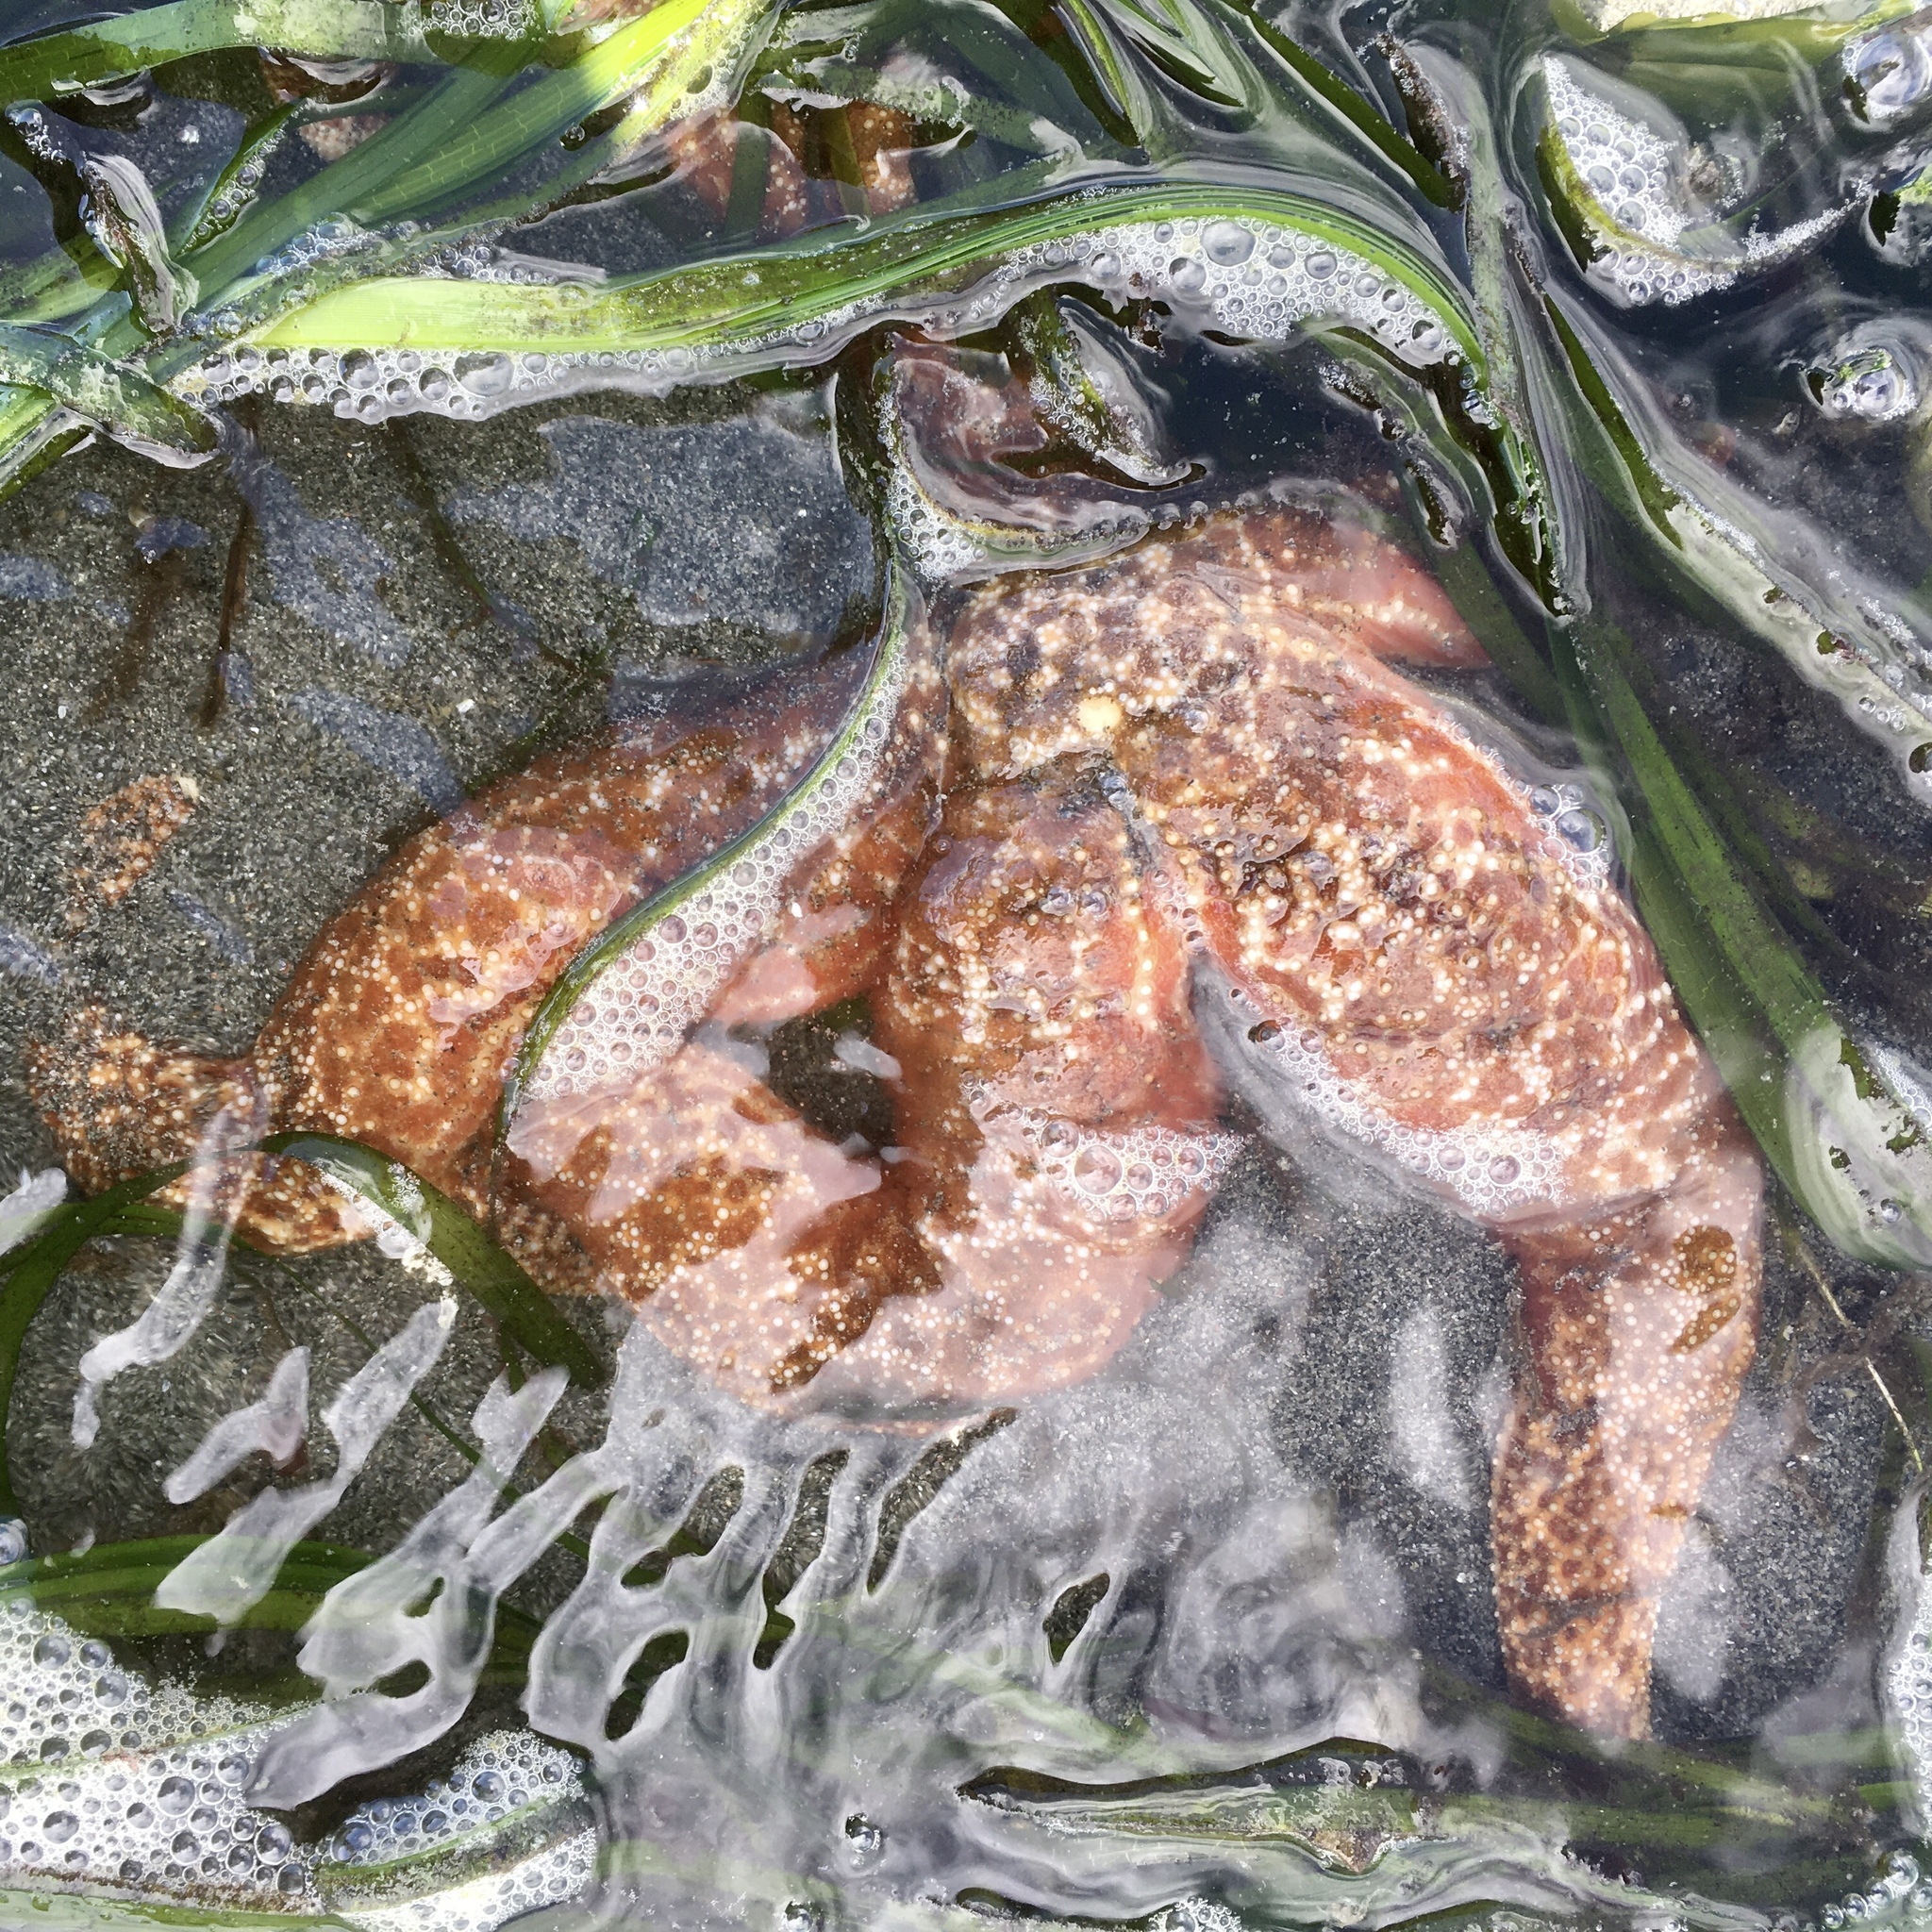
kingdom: Animalia
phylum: Echinodermata
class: Asteroidea
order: Forcipulatida
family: Asteriidae
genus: Evasterias
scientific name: Evasterias troschelii
